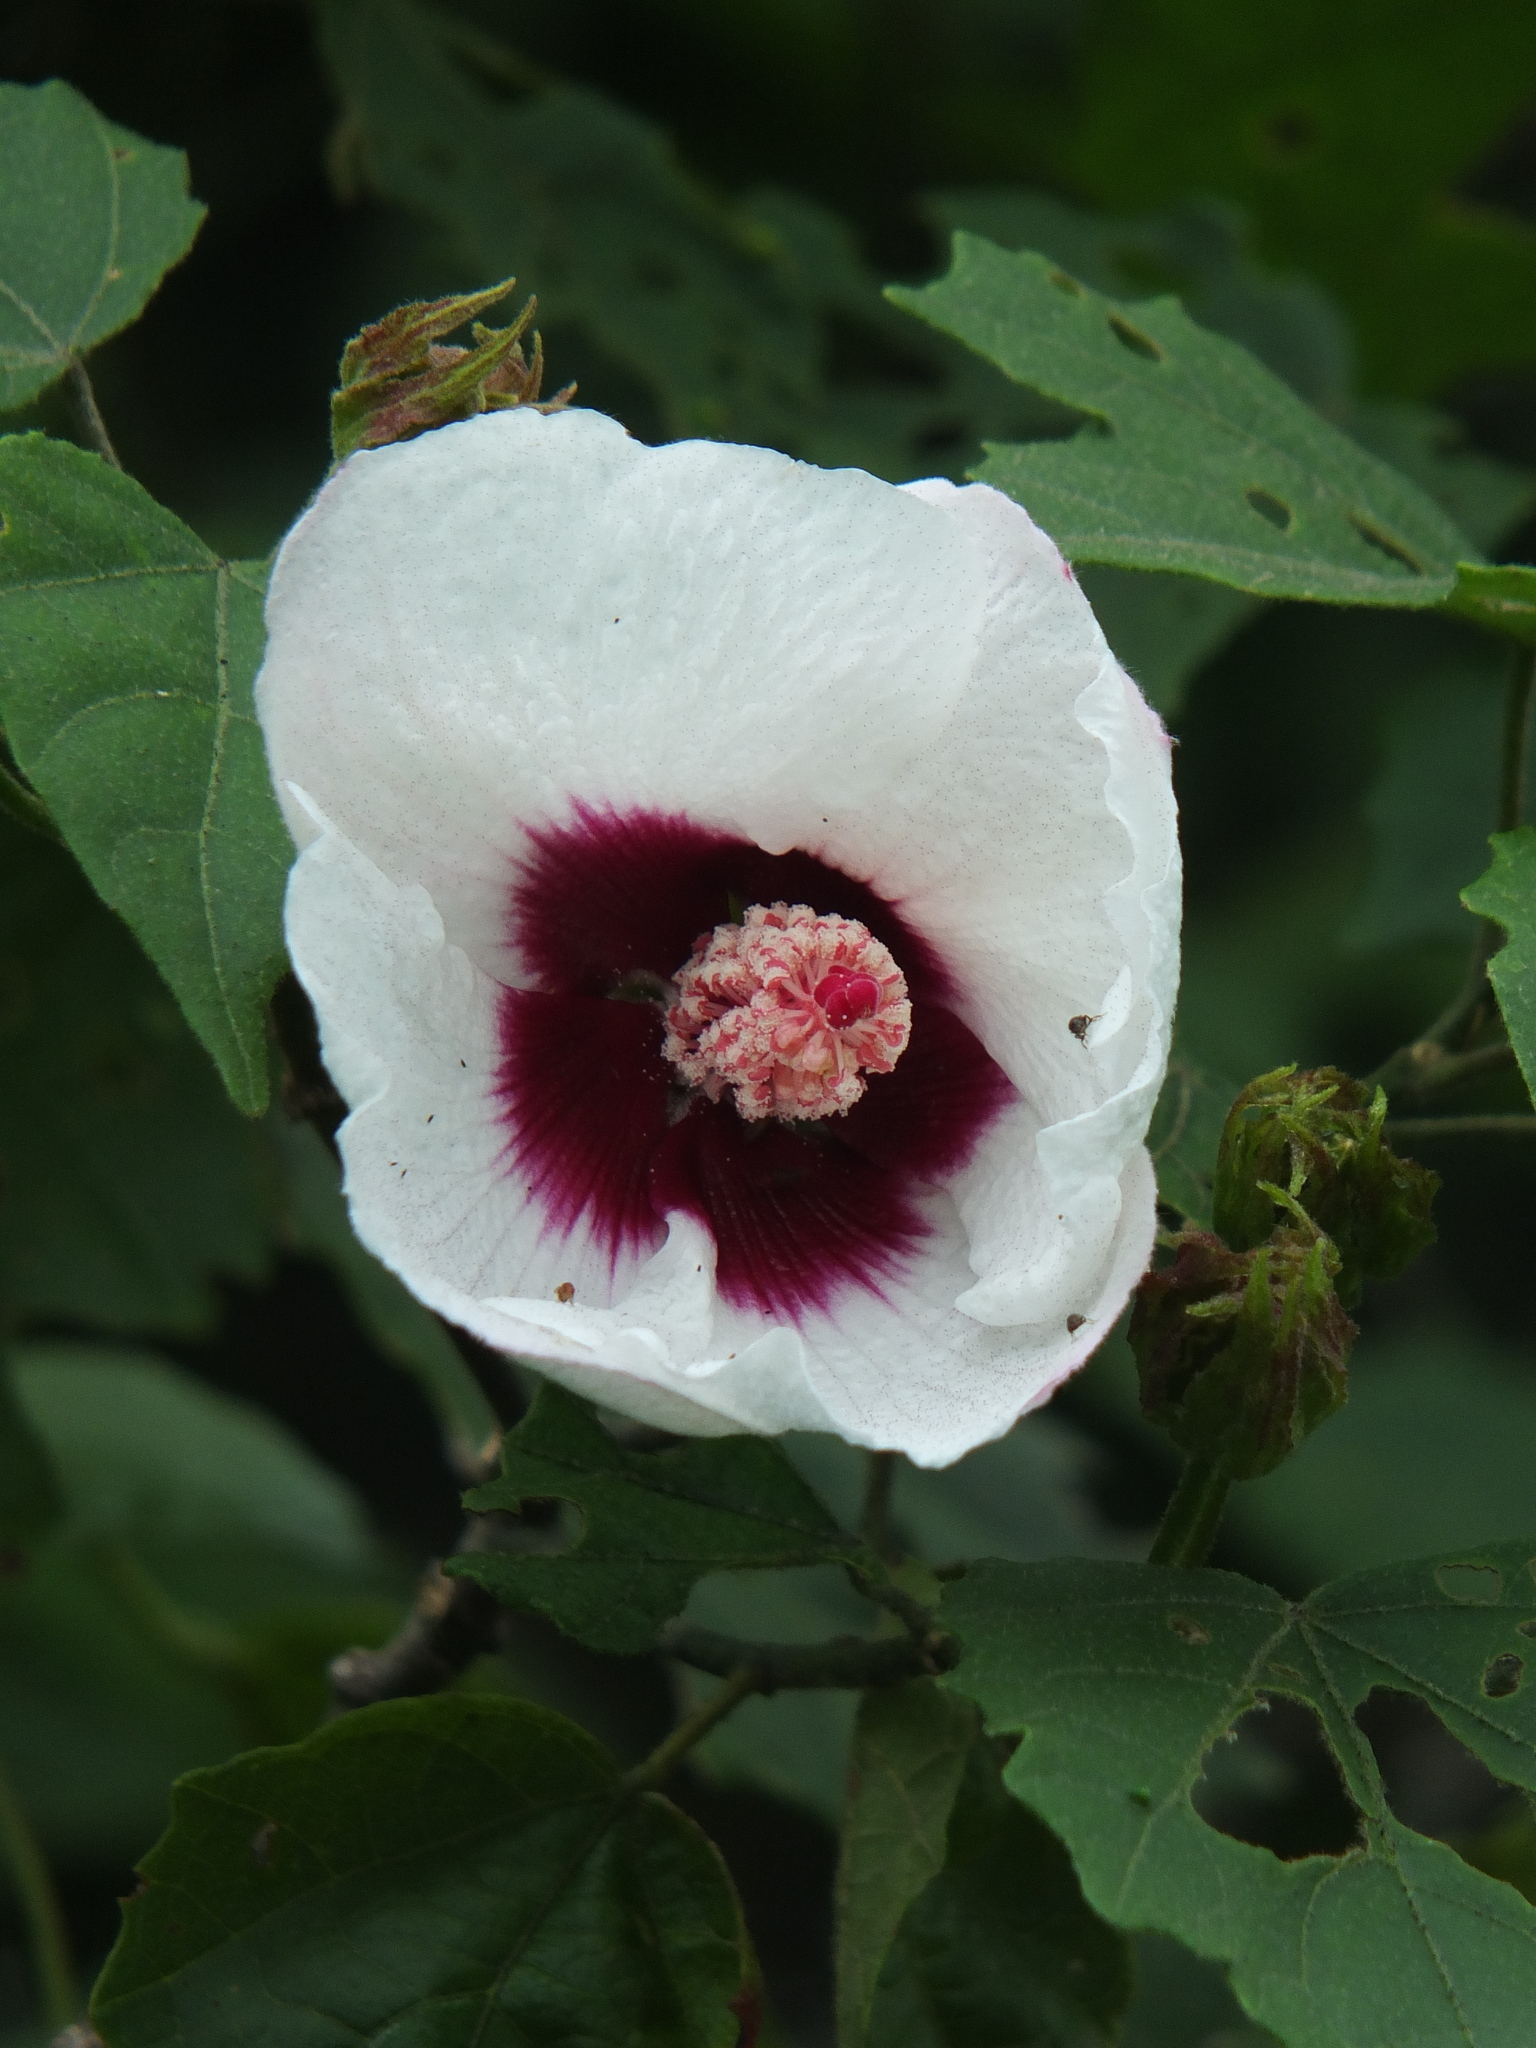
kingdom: Plantae
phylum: Tracheophyta
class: Magnoliopsida
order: Malvales
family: Malvaceae
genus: Hibiscus
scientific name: Hibiscus platanifolius
